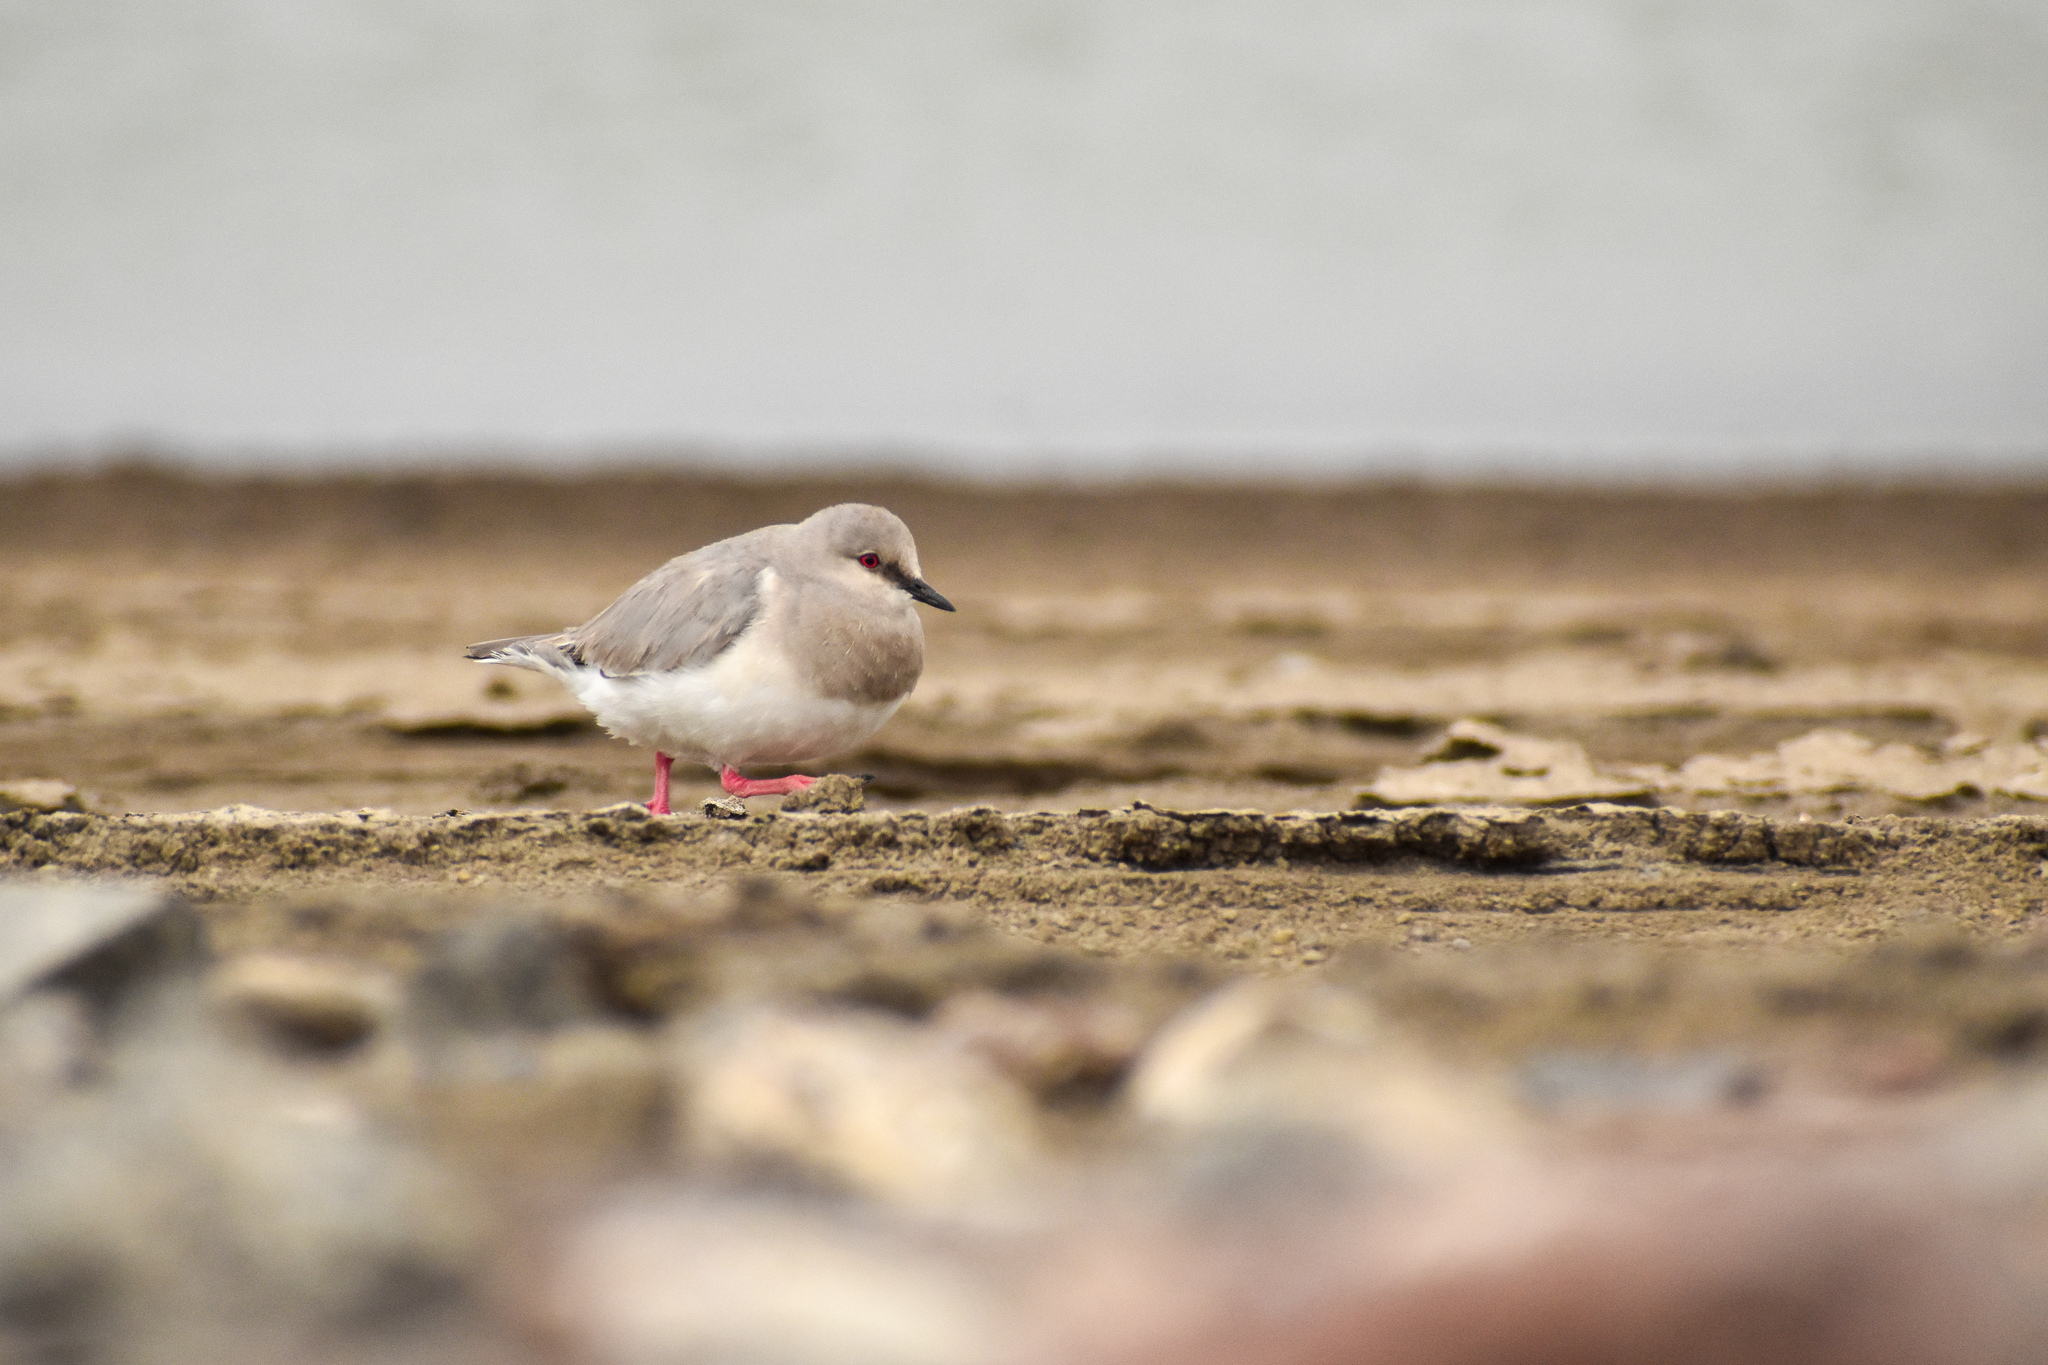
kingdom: Animalia
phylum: Chordata
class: Aves
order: Charadriiformes
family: Pluvianellidae
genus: Pluvianellus
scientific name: Pluvianellus socialis
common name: Magellanic plover
